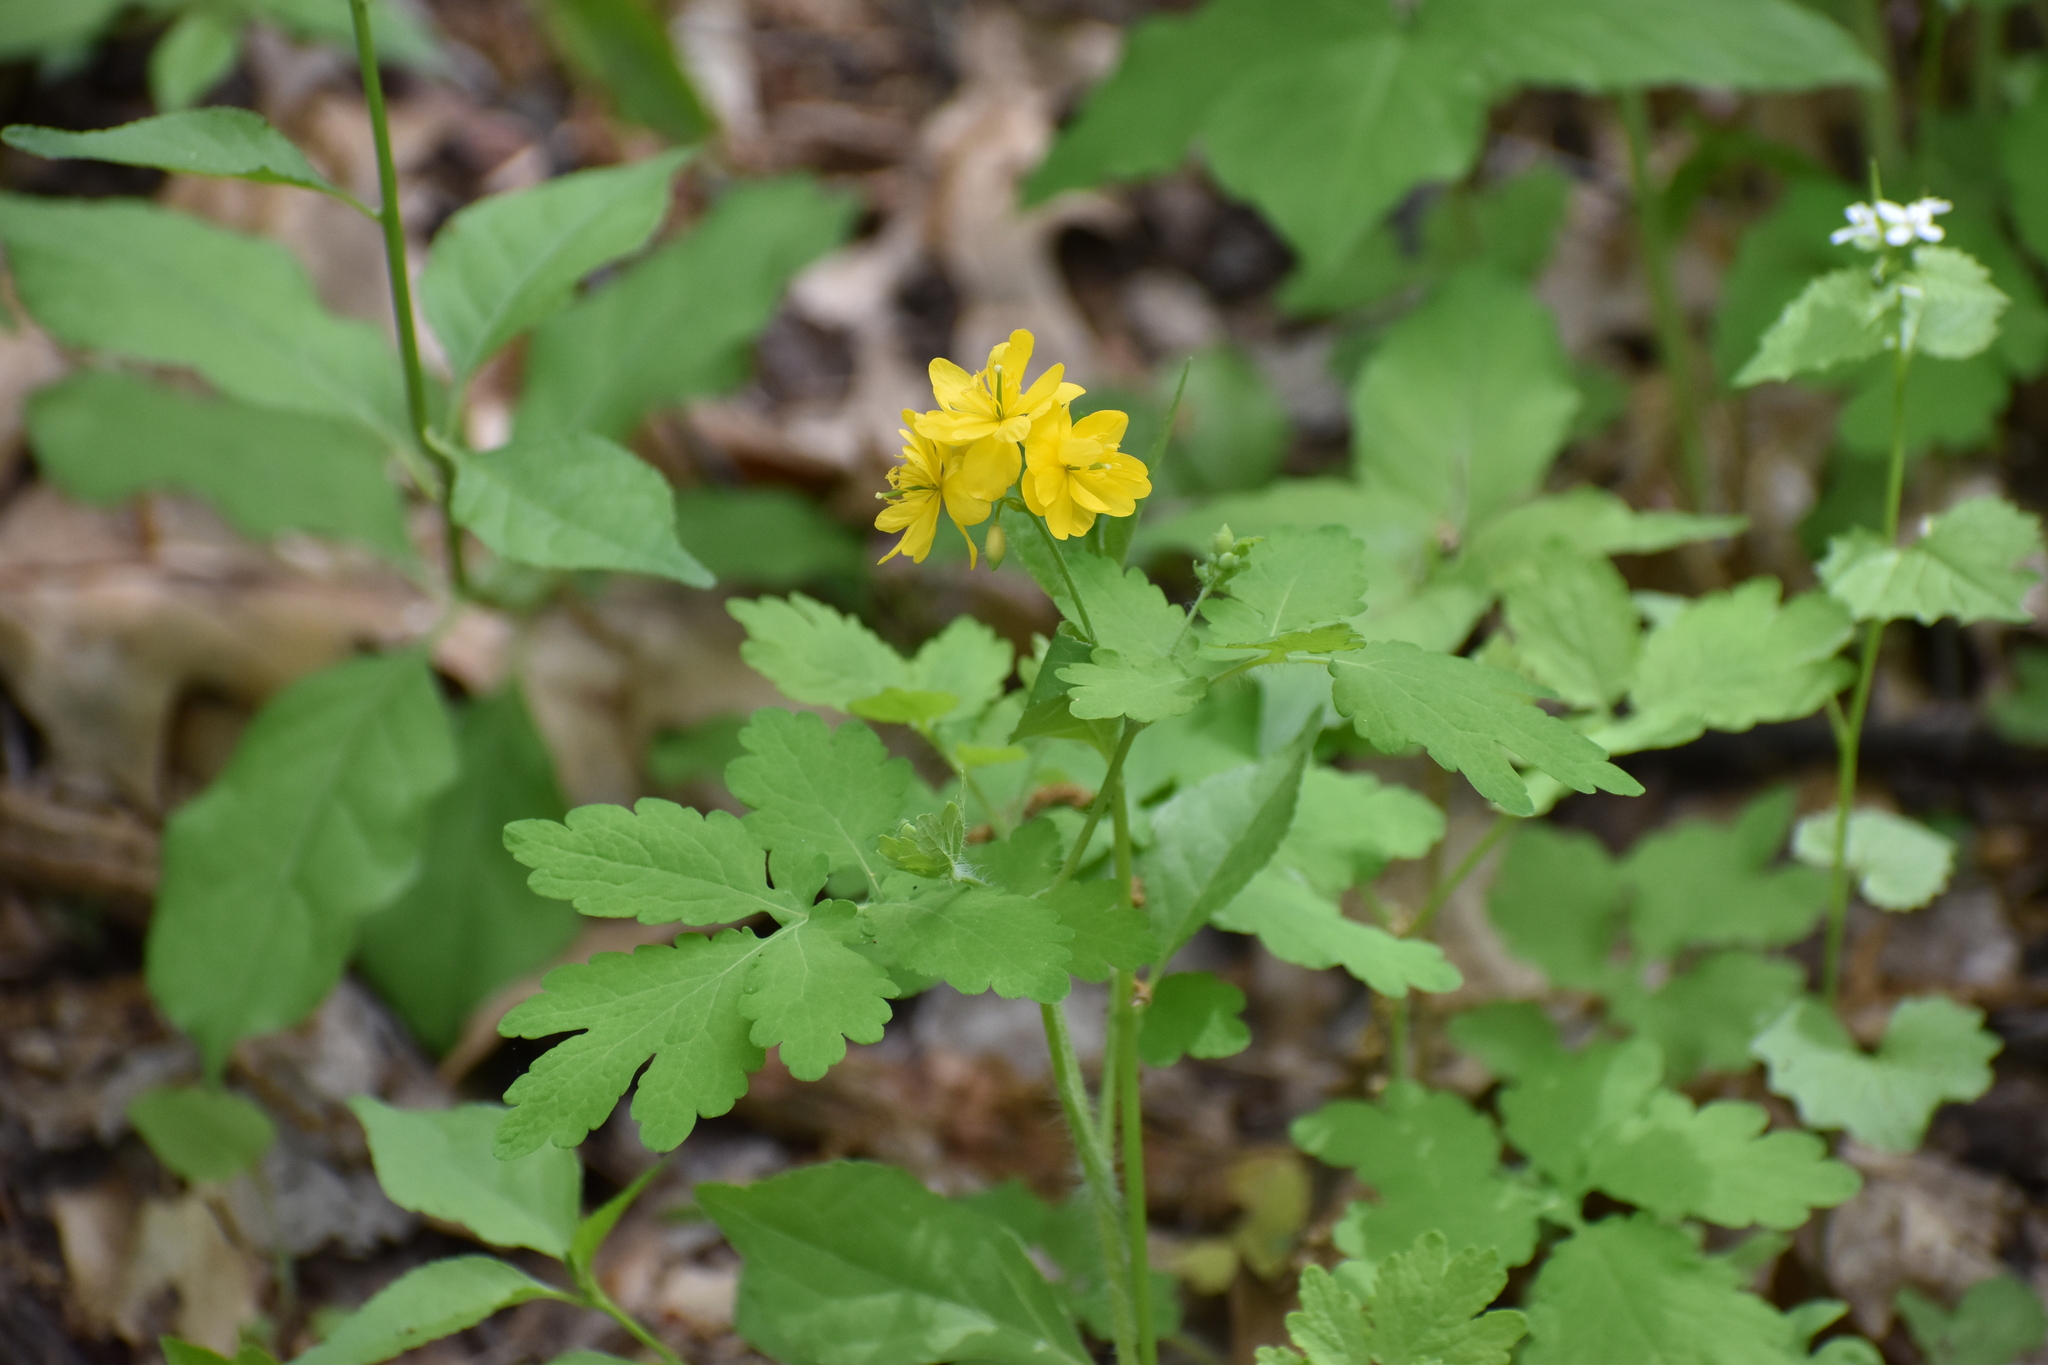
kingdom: Plantae
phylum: Tracheophyta
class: Magnoliopsida
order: Ranunculales
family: Papaveraceae
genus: Chelidonium
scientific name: Chelidonium majus
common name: Greater celandine
